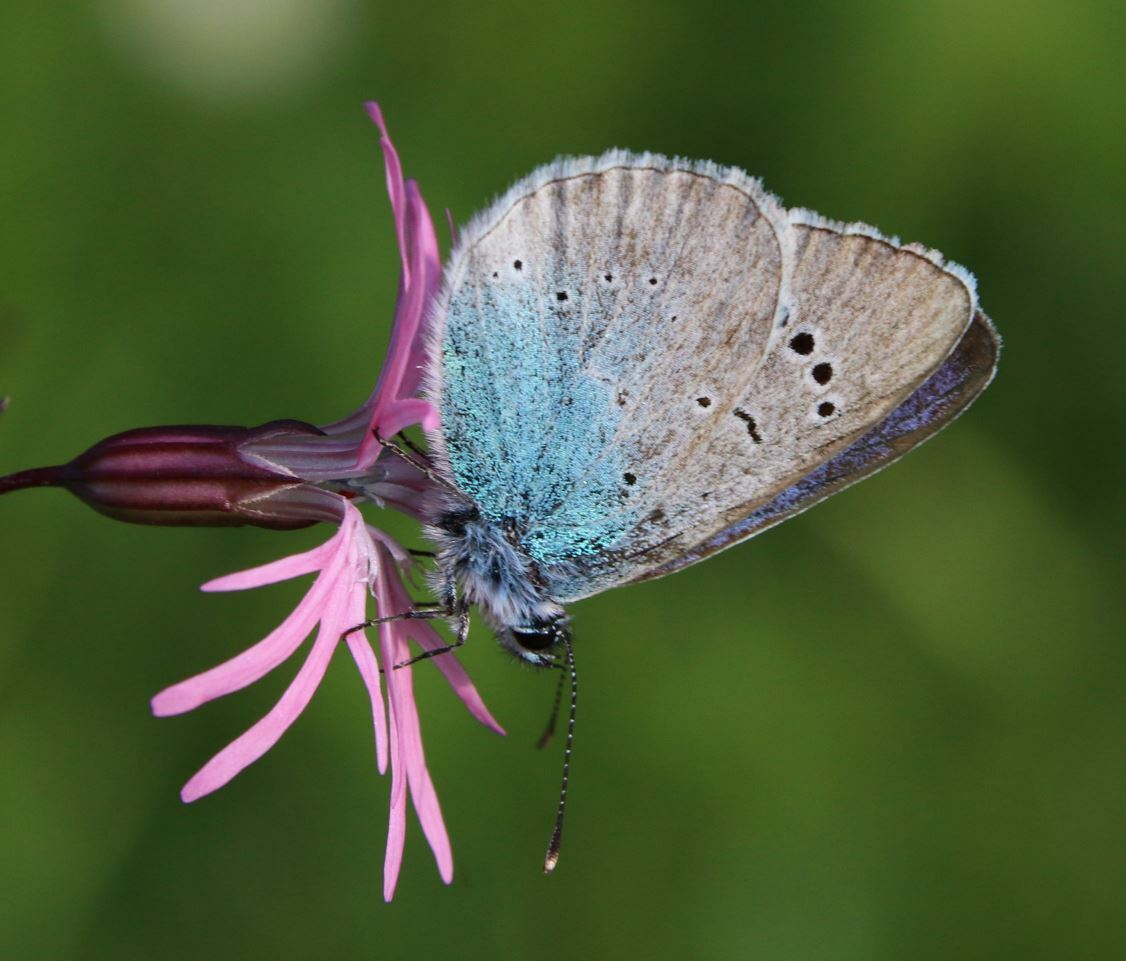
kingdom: Animalia
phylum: Arthropoda
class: Insecta
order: Lepidoptera
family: Lycaenidae
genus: Glaucopsyche
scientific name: Glaucopsyche alexis
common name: Green-underside blue
